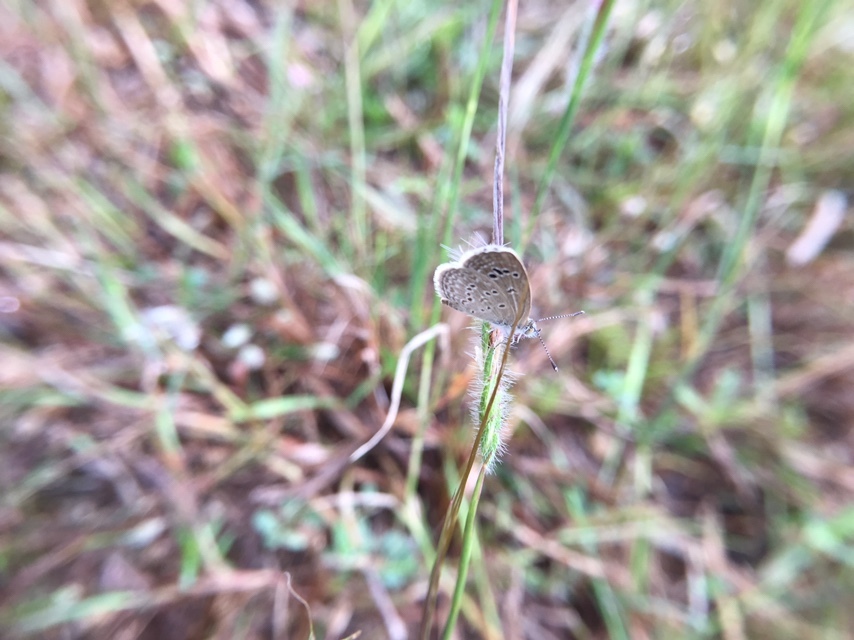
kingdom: Animalia
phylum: Arthropoda
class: Insecta
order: Lepidoptera
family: Lycaenidae
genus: Zizina
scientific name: Zizina otis
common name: Lesser grass blue
